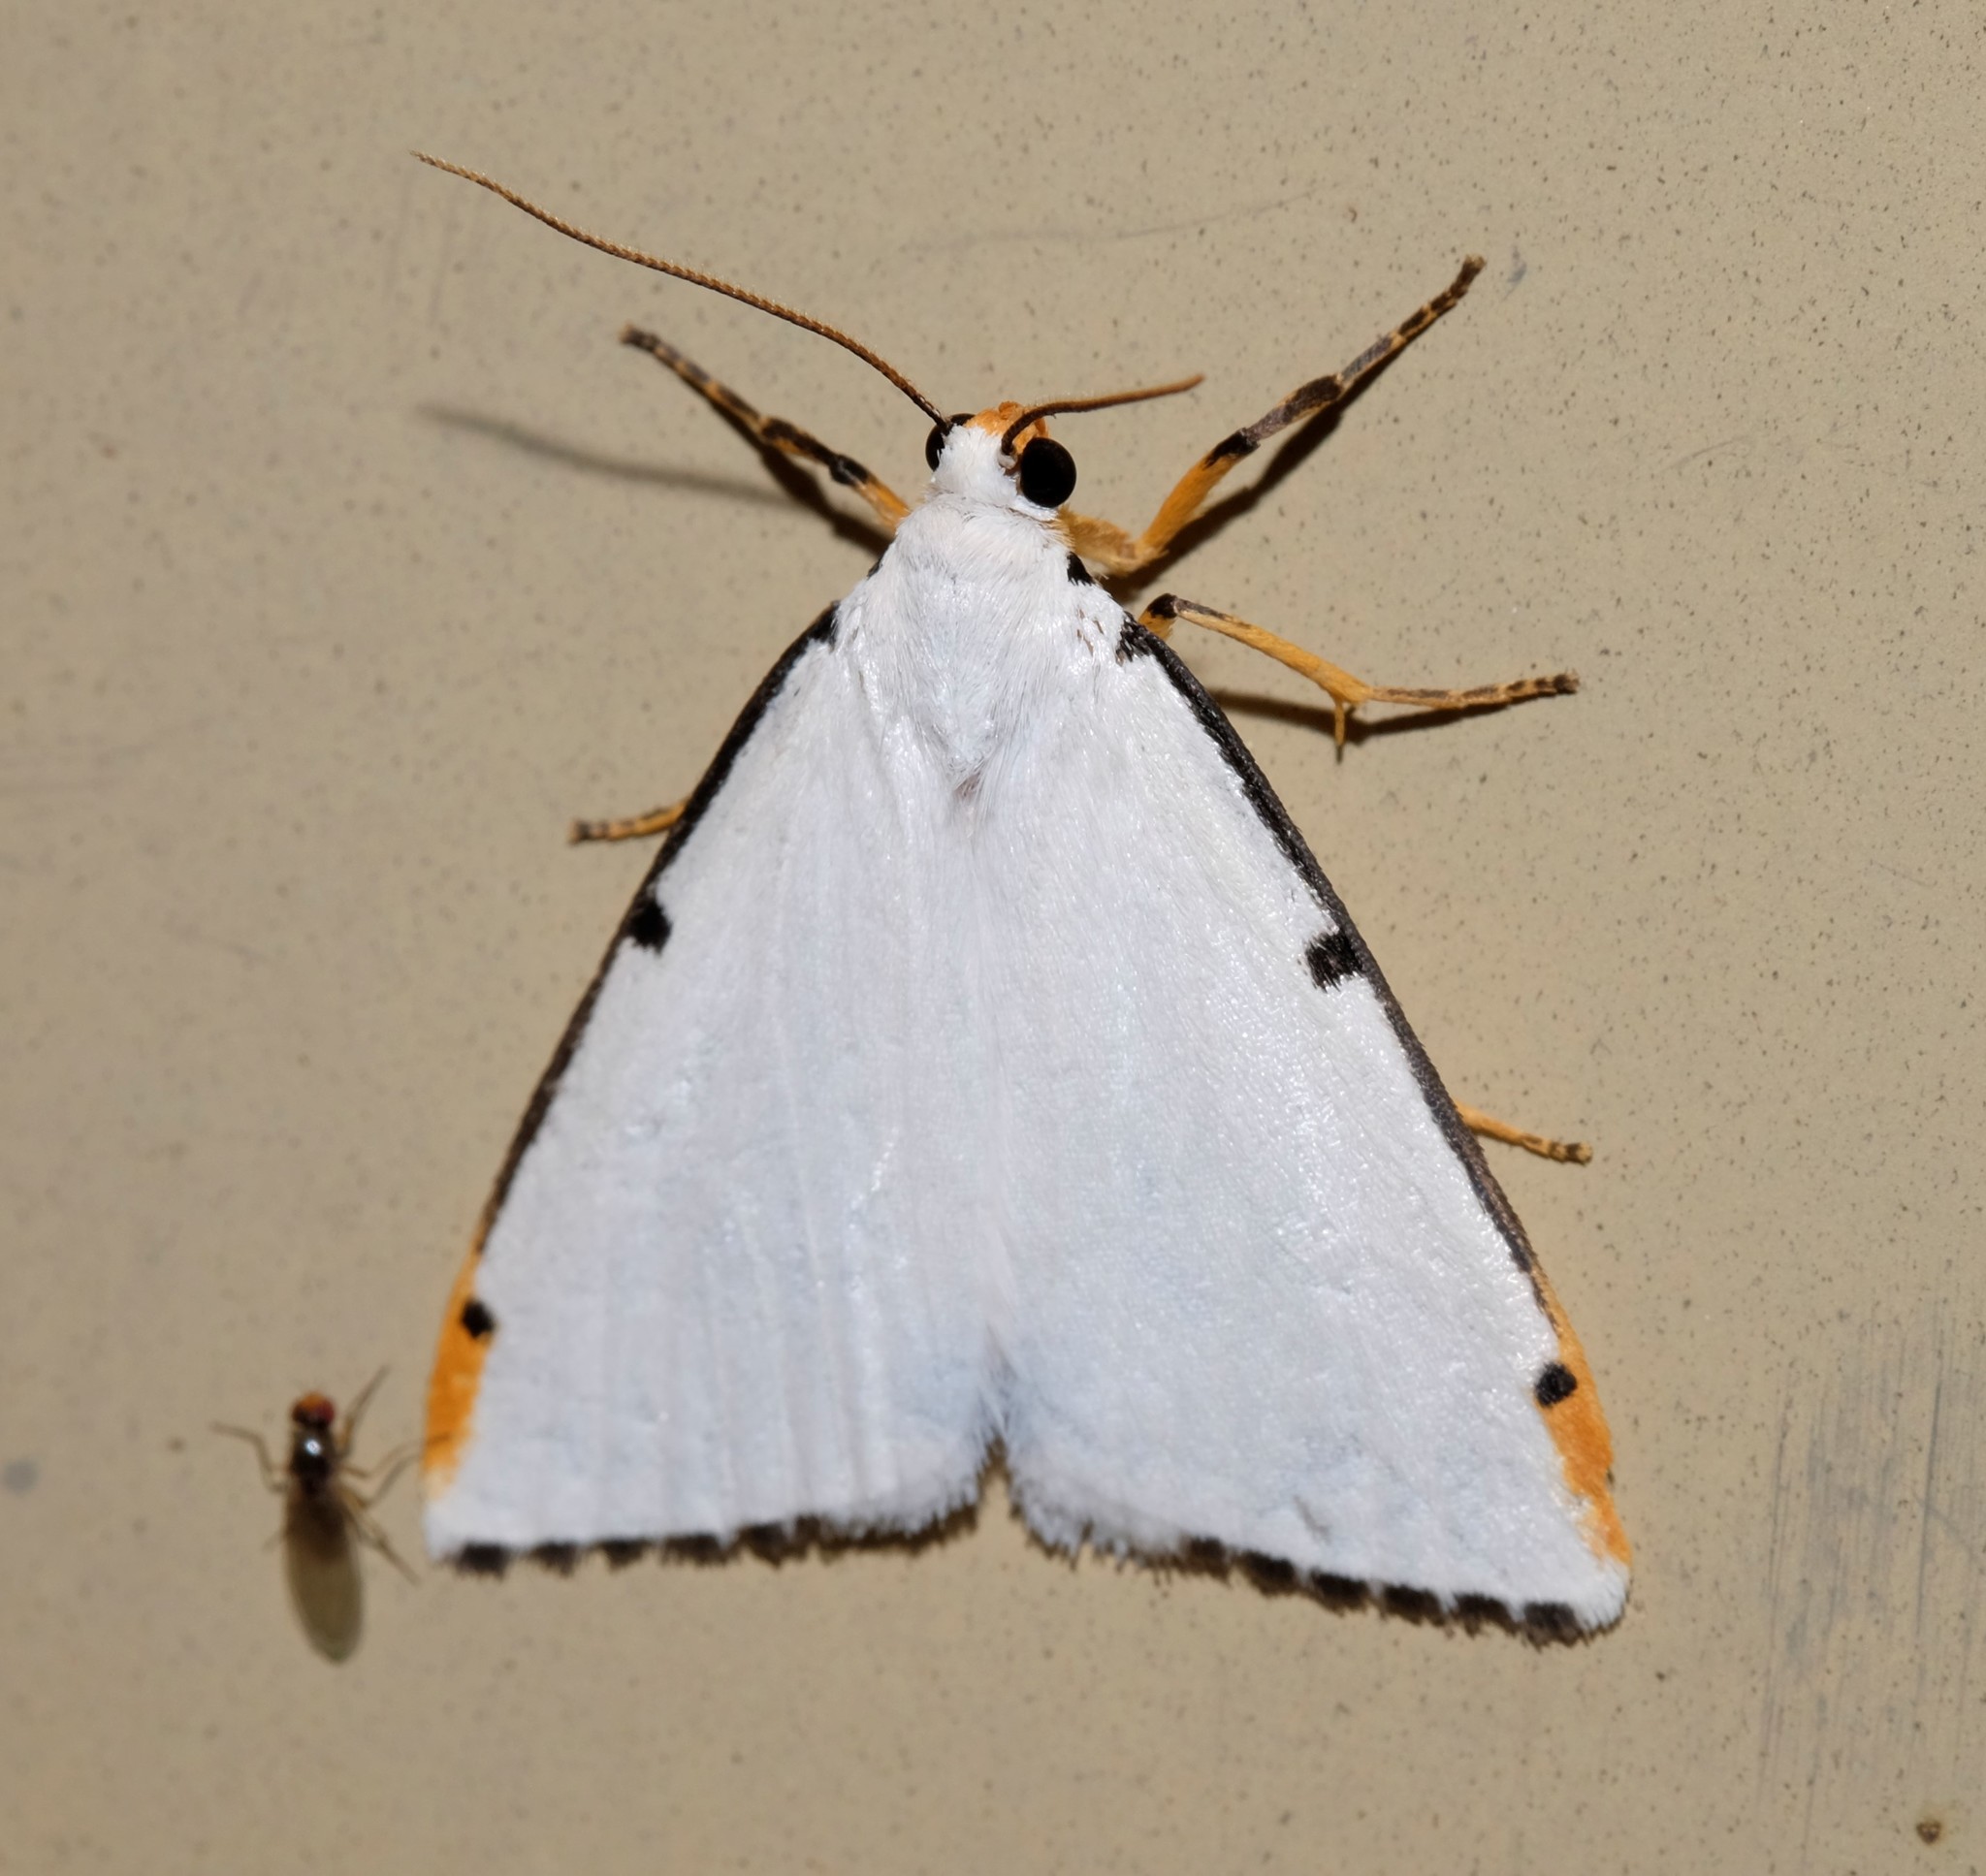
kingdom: Animalia
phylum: Arthropoda
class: Insecta
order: Lepidoptera
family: Erebidae
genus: Termessa
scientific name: Termessa nivosa
